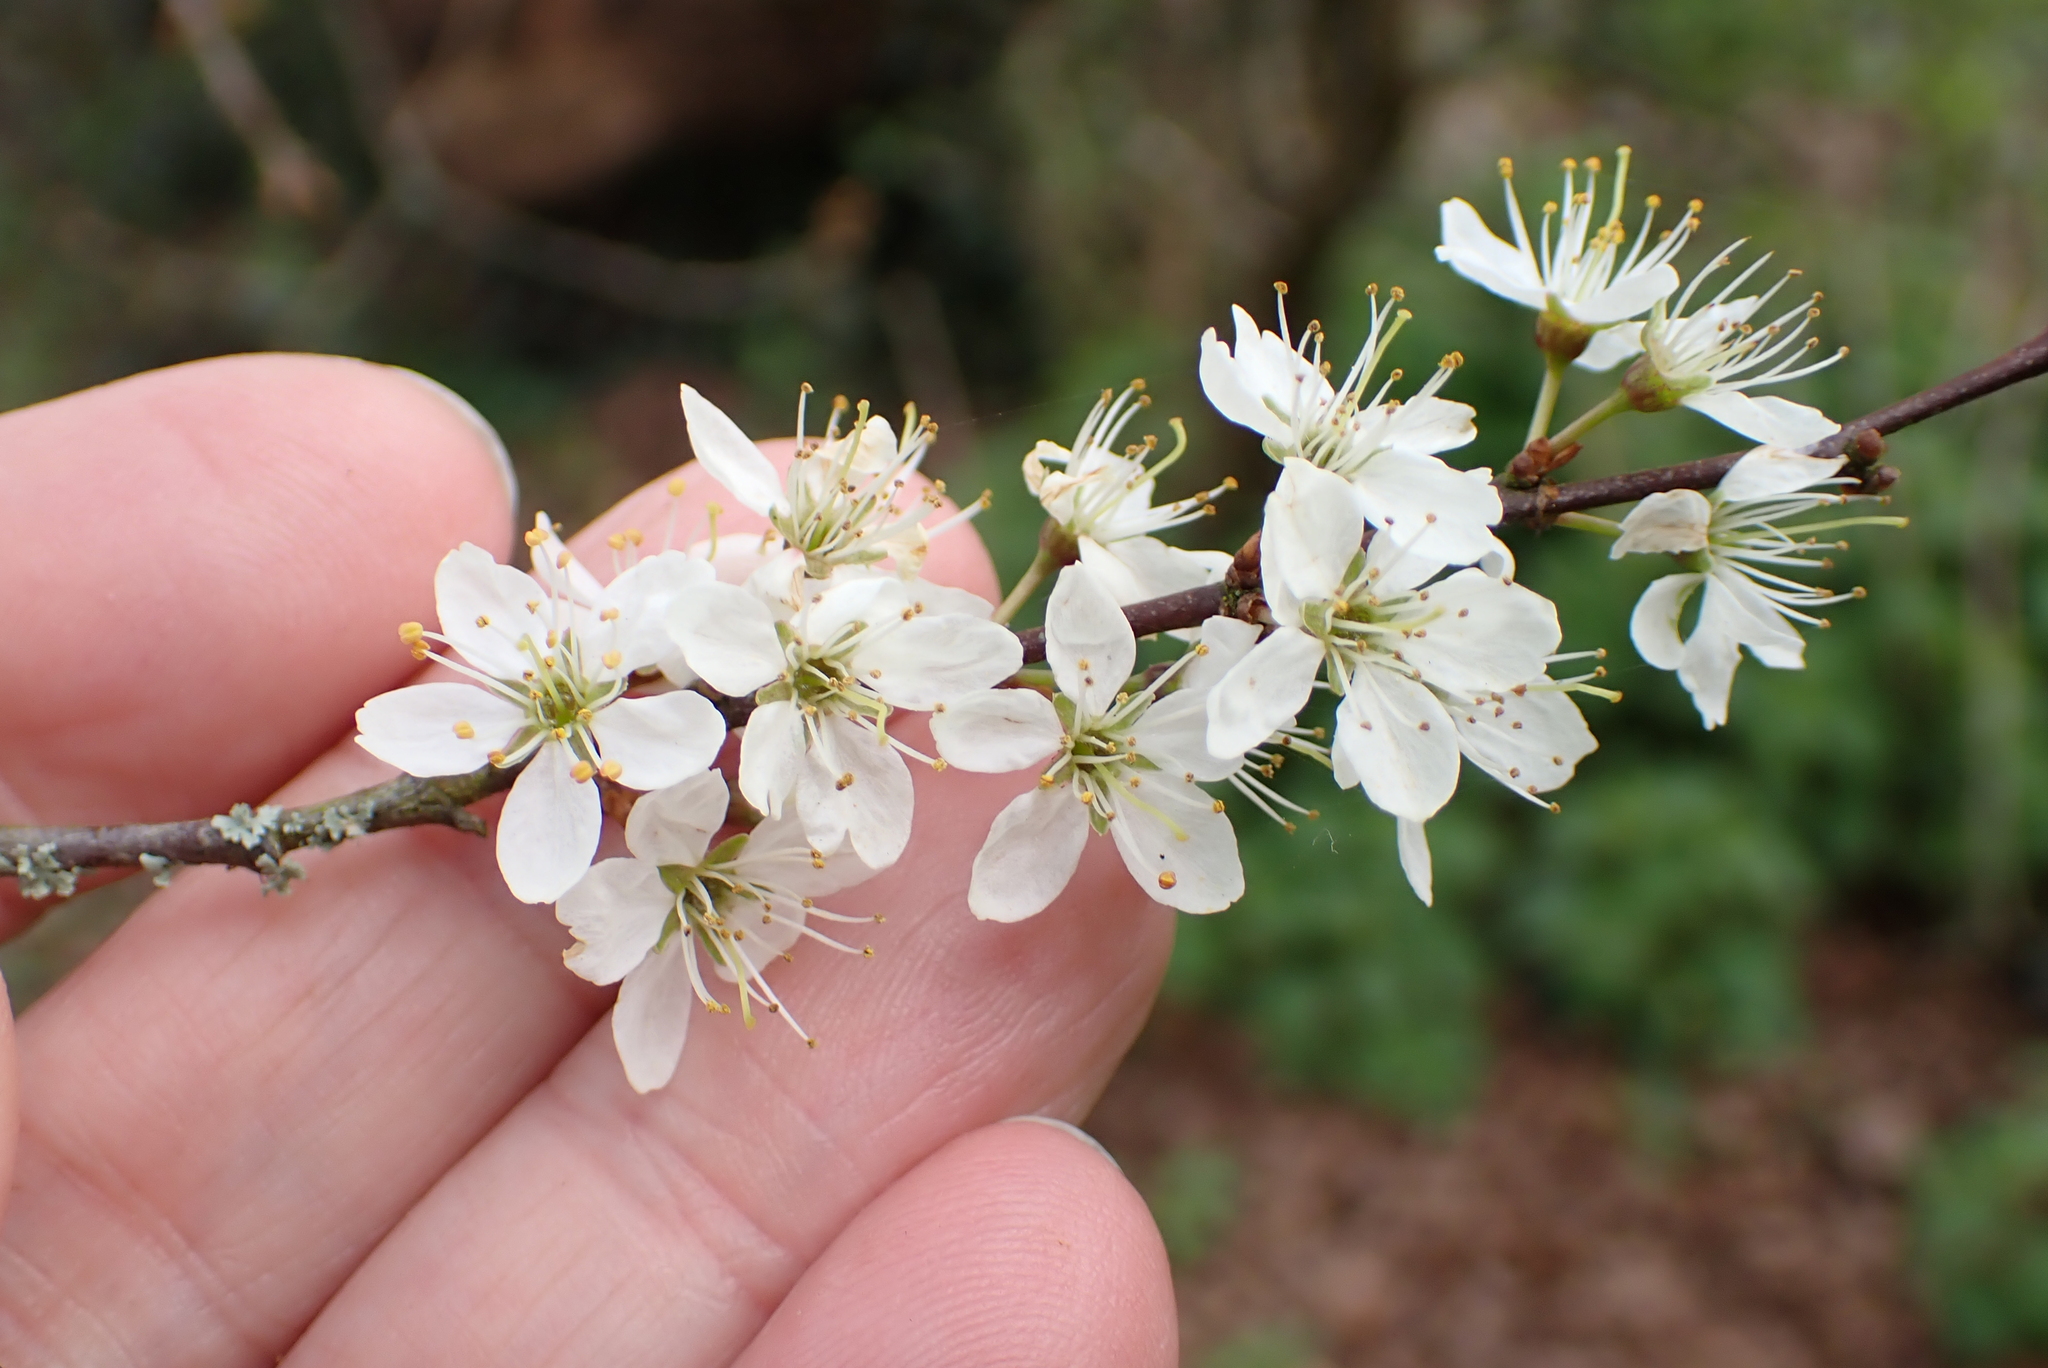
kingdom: Plantae
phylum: Tracheophyta
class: Magnoliopsida
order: Rosales
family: Rosaceae
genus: Prunus
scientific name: Prunus spinosa
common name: Blackthorn
